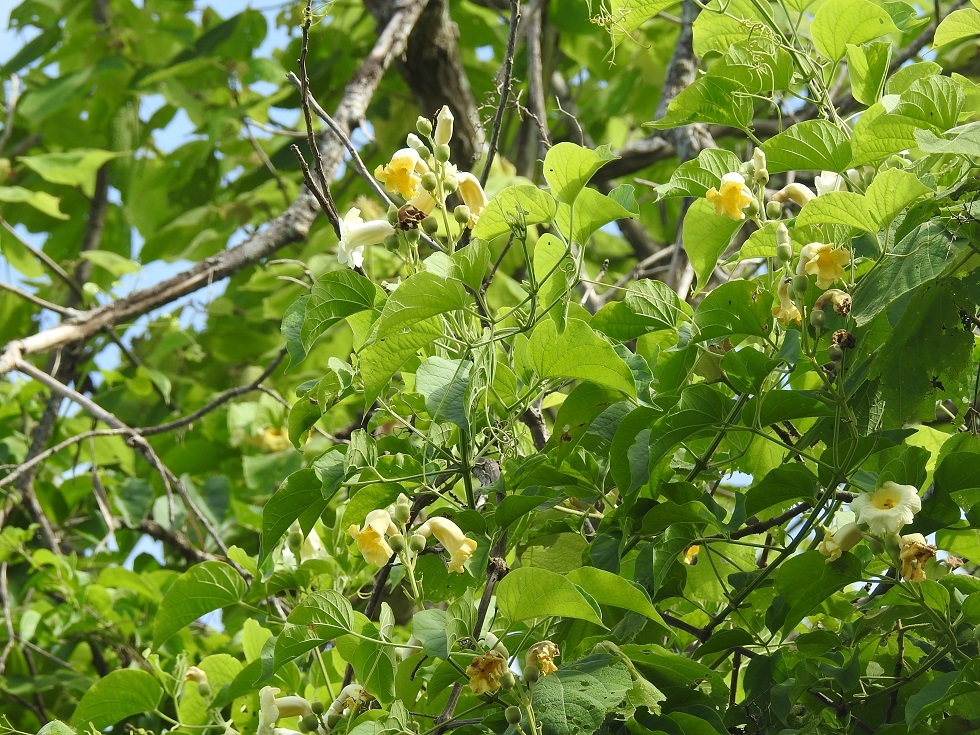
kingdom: Plantae
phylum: Tracheophyta
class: Magnoliopsida
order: Lamiales
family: Bignoniaceae
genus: Amphilophium
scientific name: Amphilophium crucigerum
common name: Monkey comb
